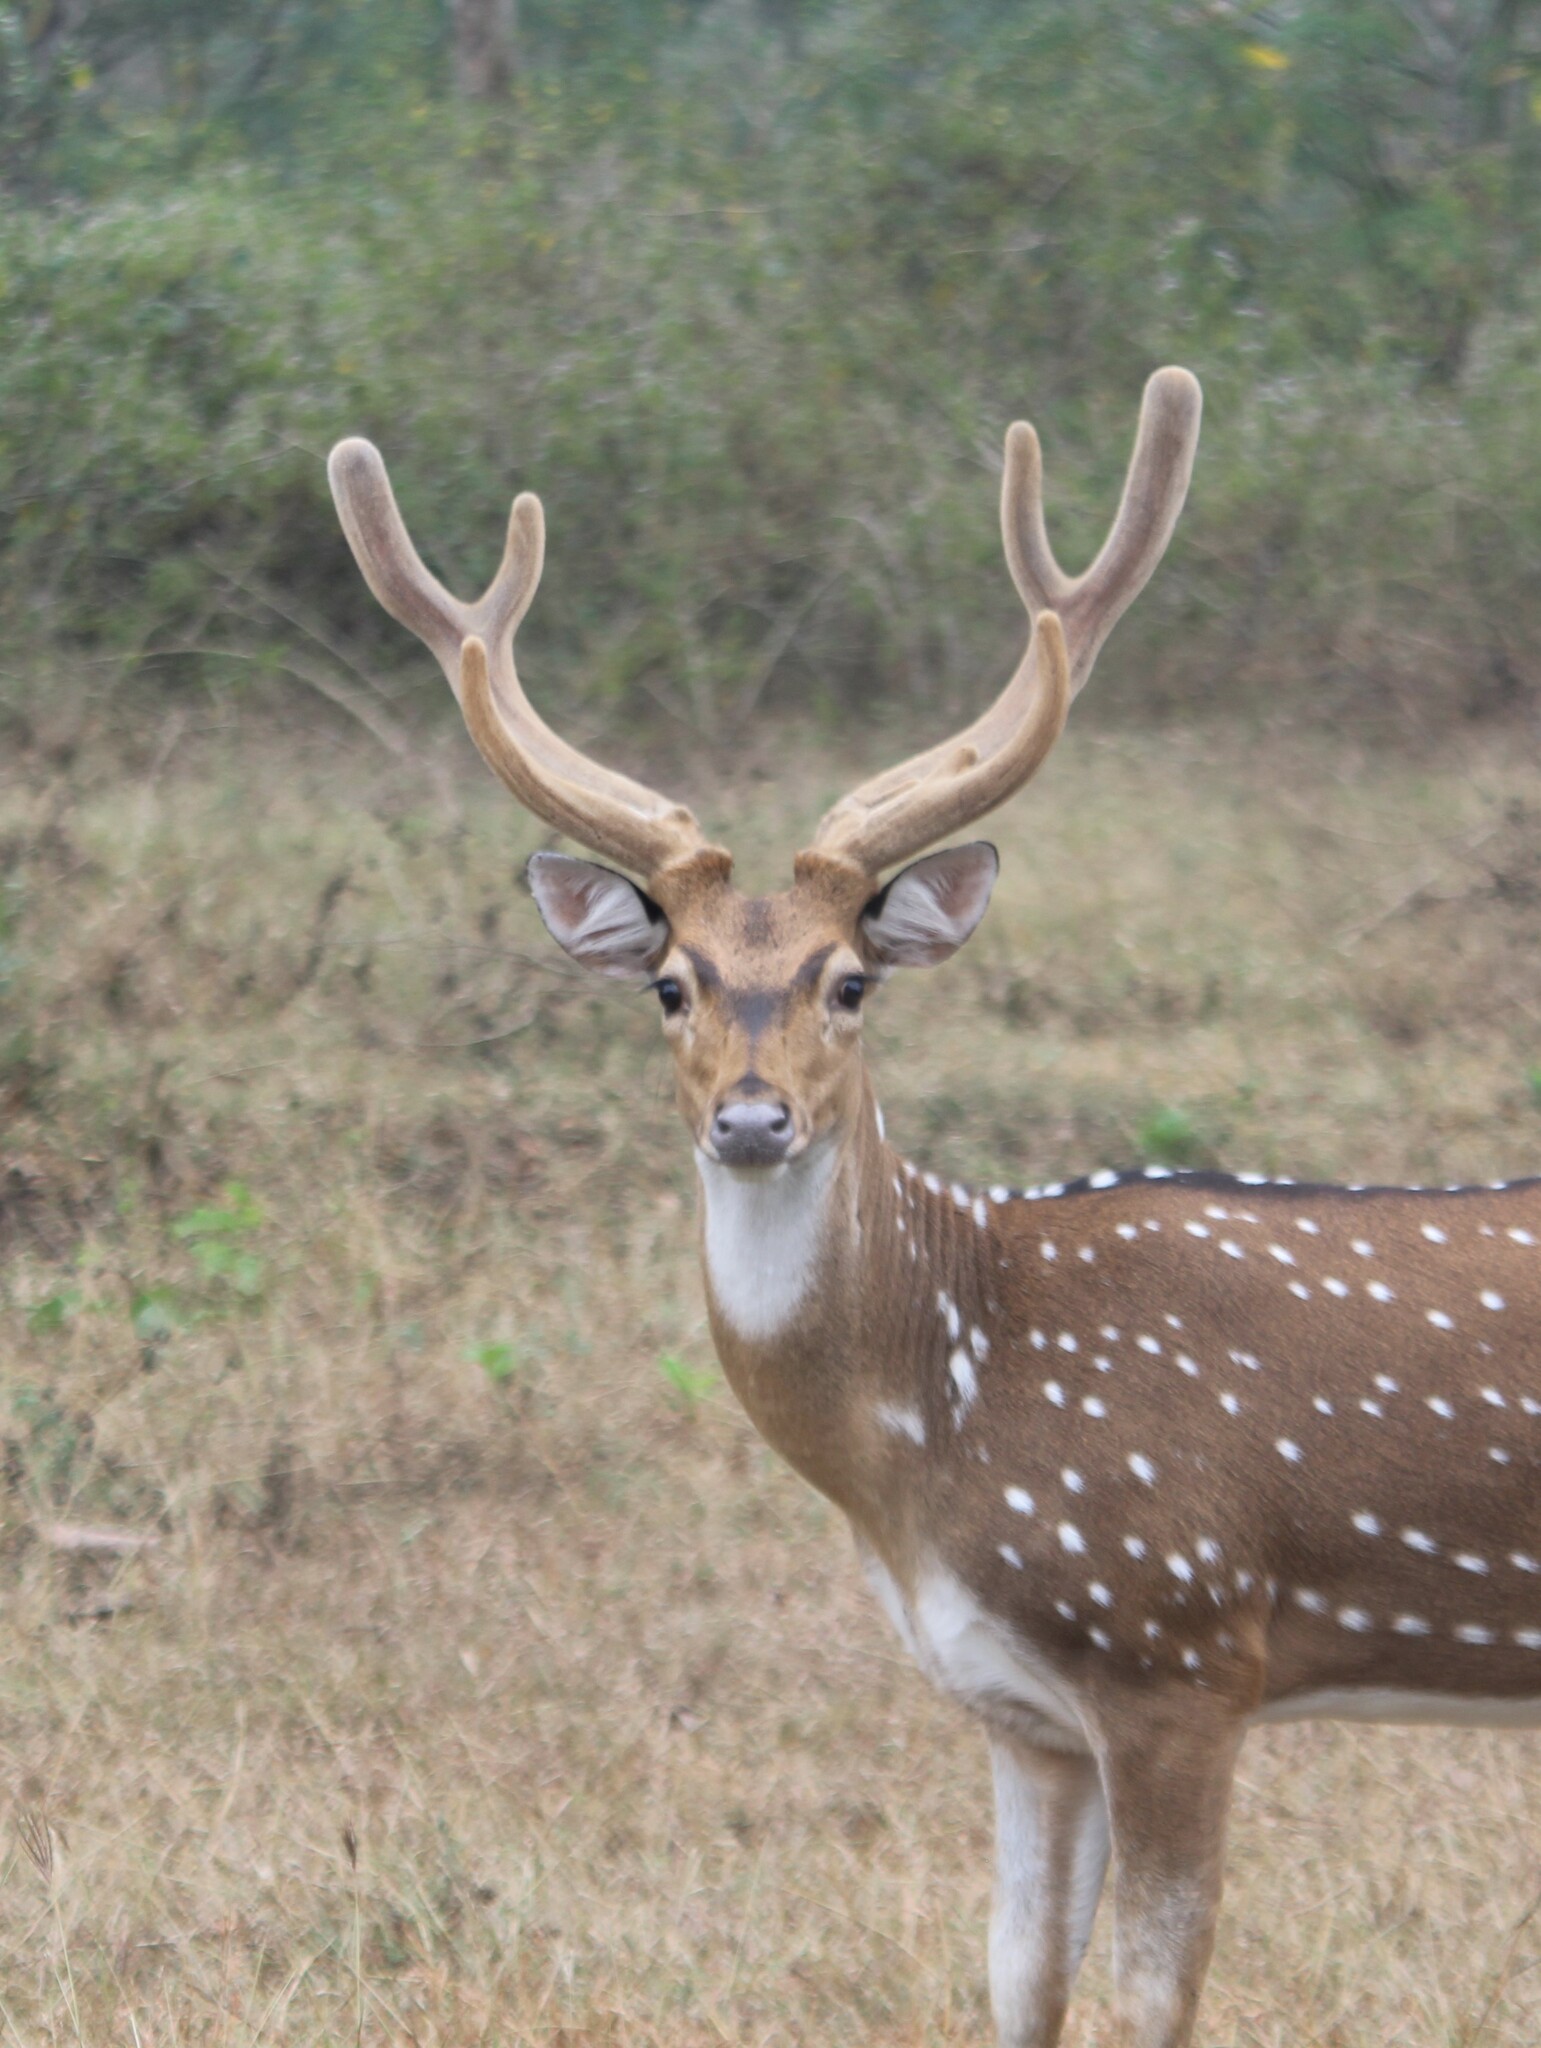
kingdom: Animalia
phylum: Chordata
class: Mammalia
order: Artiodactyla
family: Cervidae
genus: Axis
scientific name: Axis axis
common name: Chital
